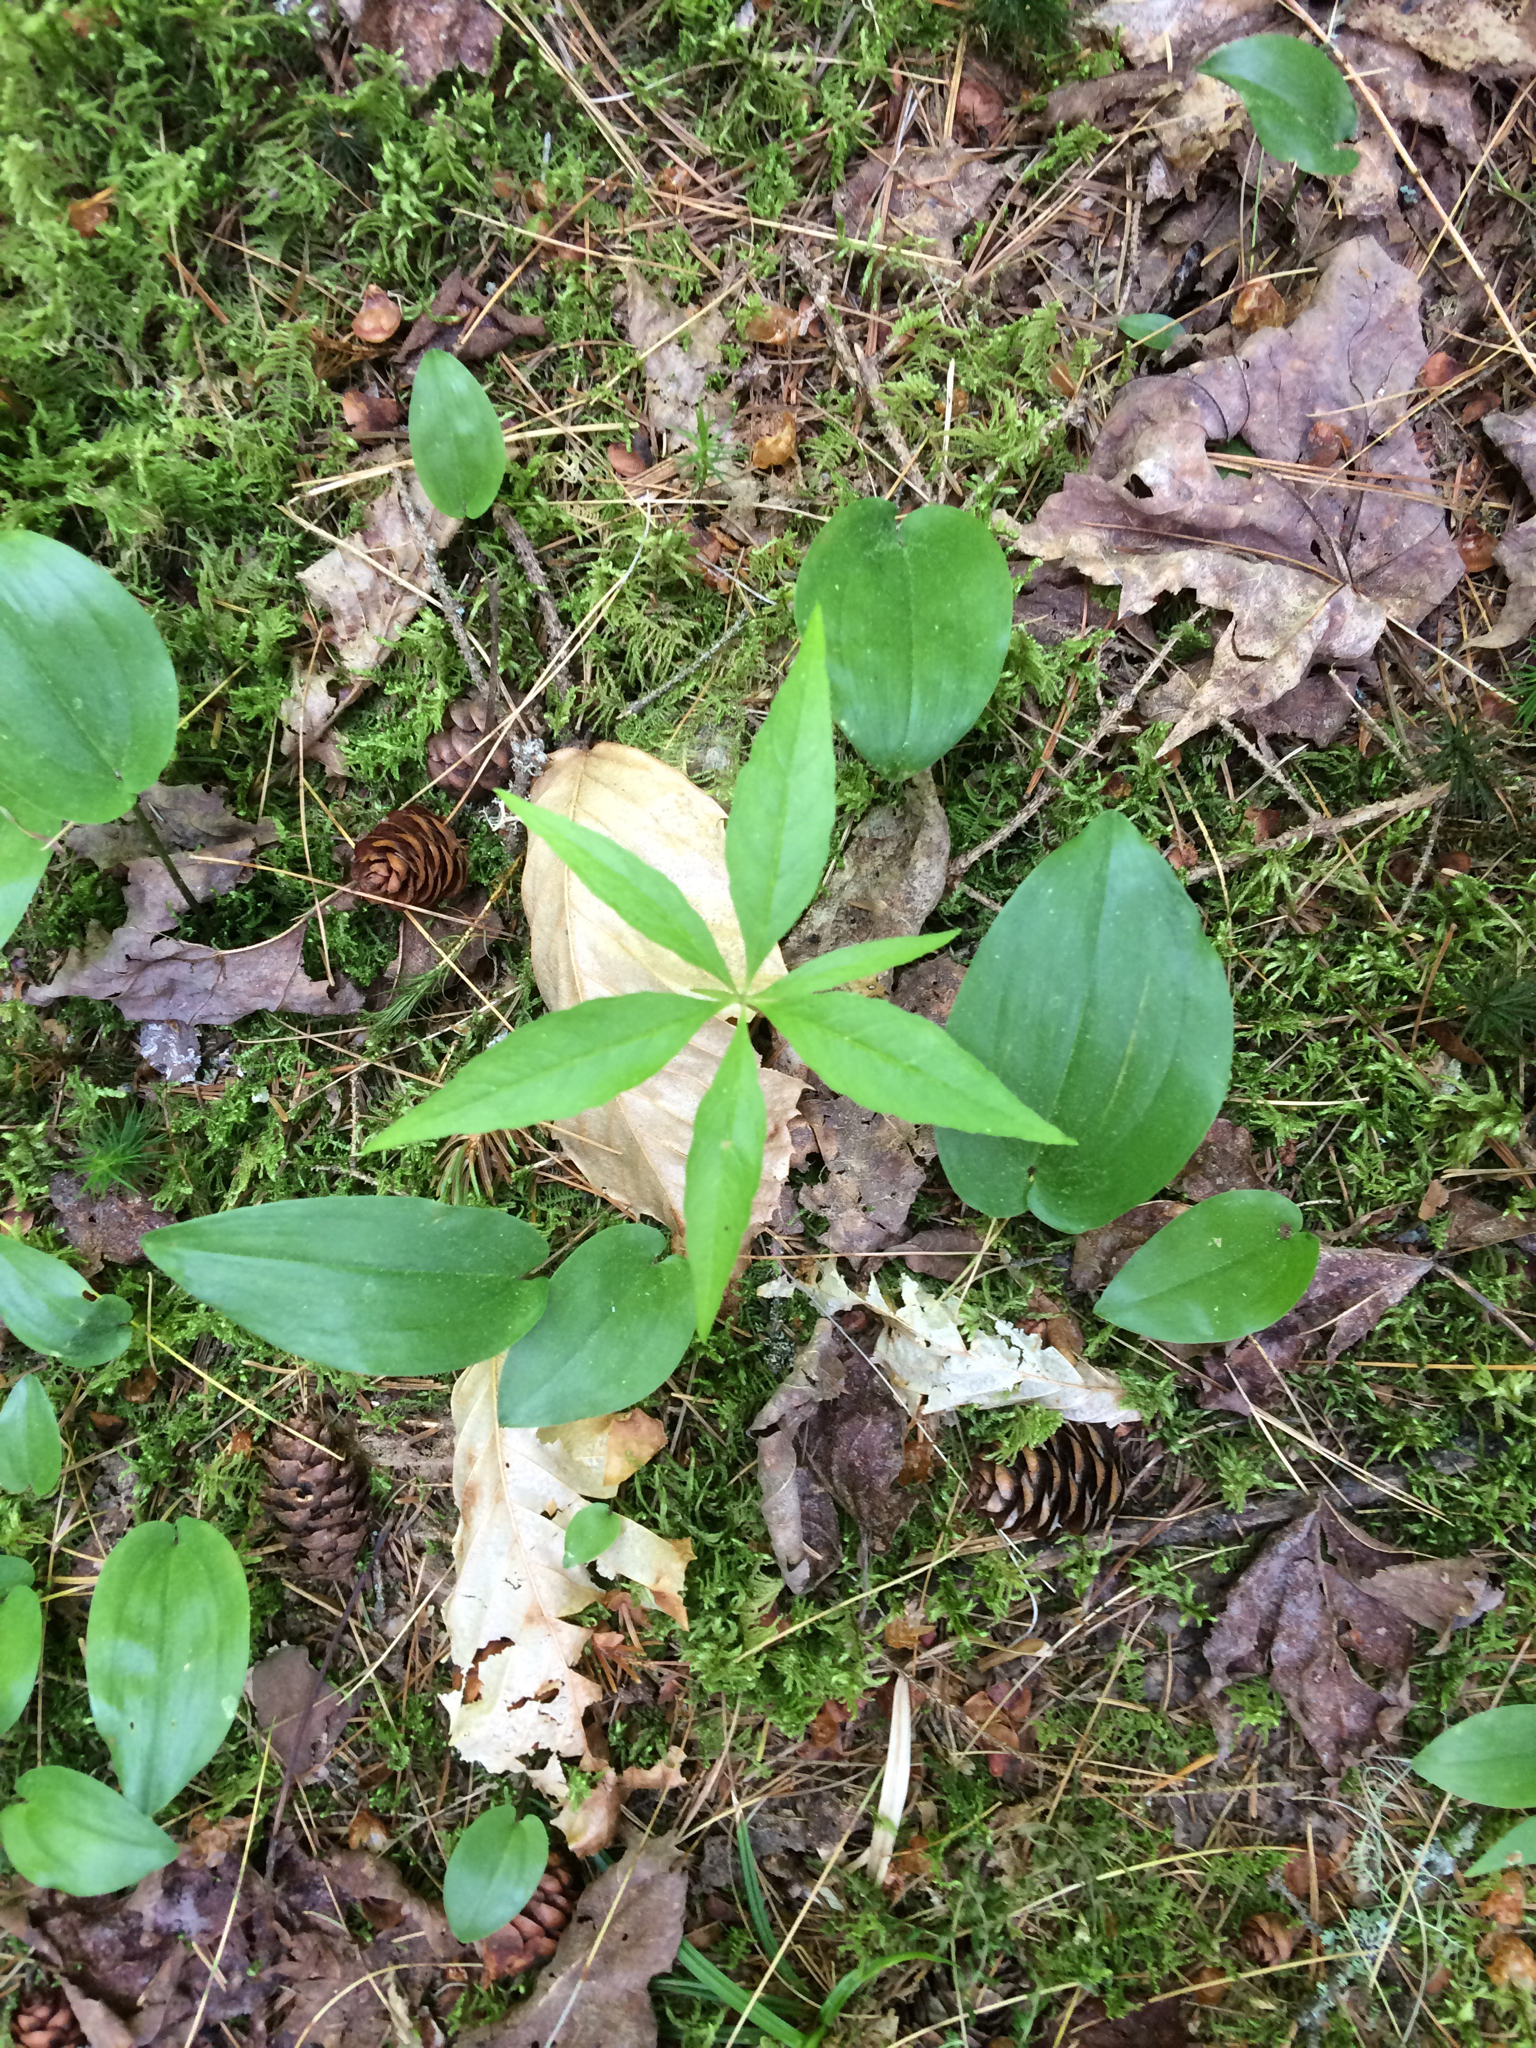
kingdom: Plantae
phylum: Tracheophyta
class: Magnoliopsida
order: Ericales
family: Primulaceae
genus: Lysimachia
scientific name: Lysimachia borealis
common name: American starflower
